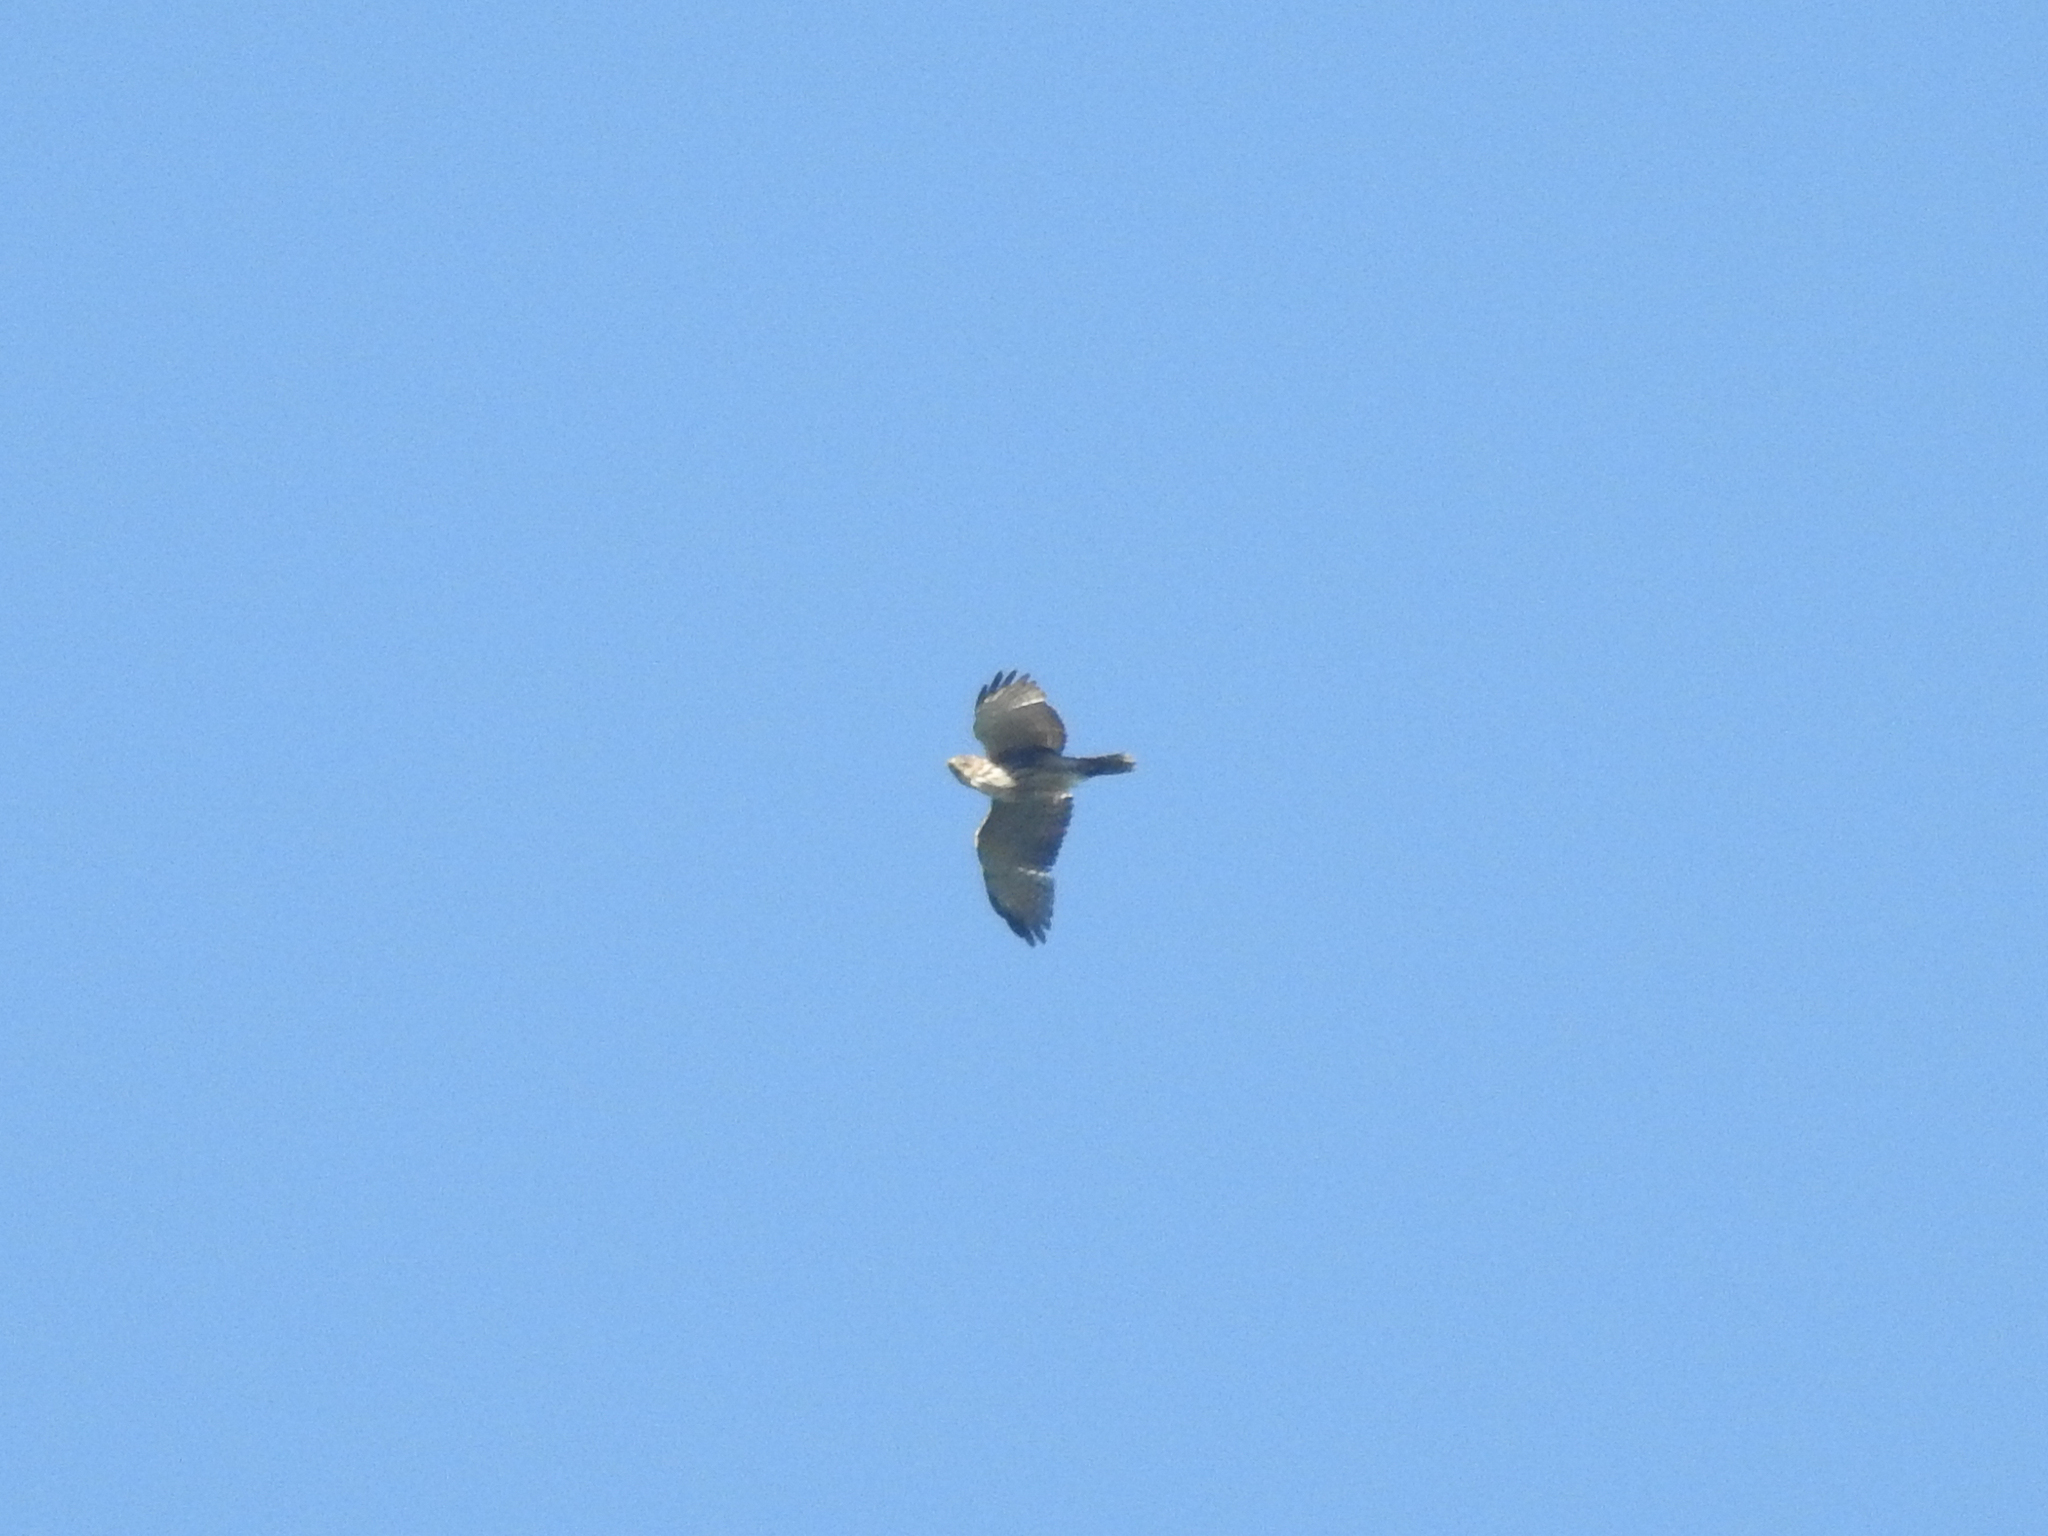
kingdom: Animalia
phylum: Chordata
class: Aves
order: Accipitriformes
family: Accipitridae
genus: Buteo
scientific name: Buteo platypterus
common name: Broad-winged hawk
